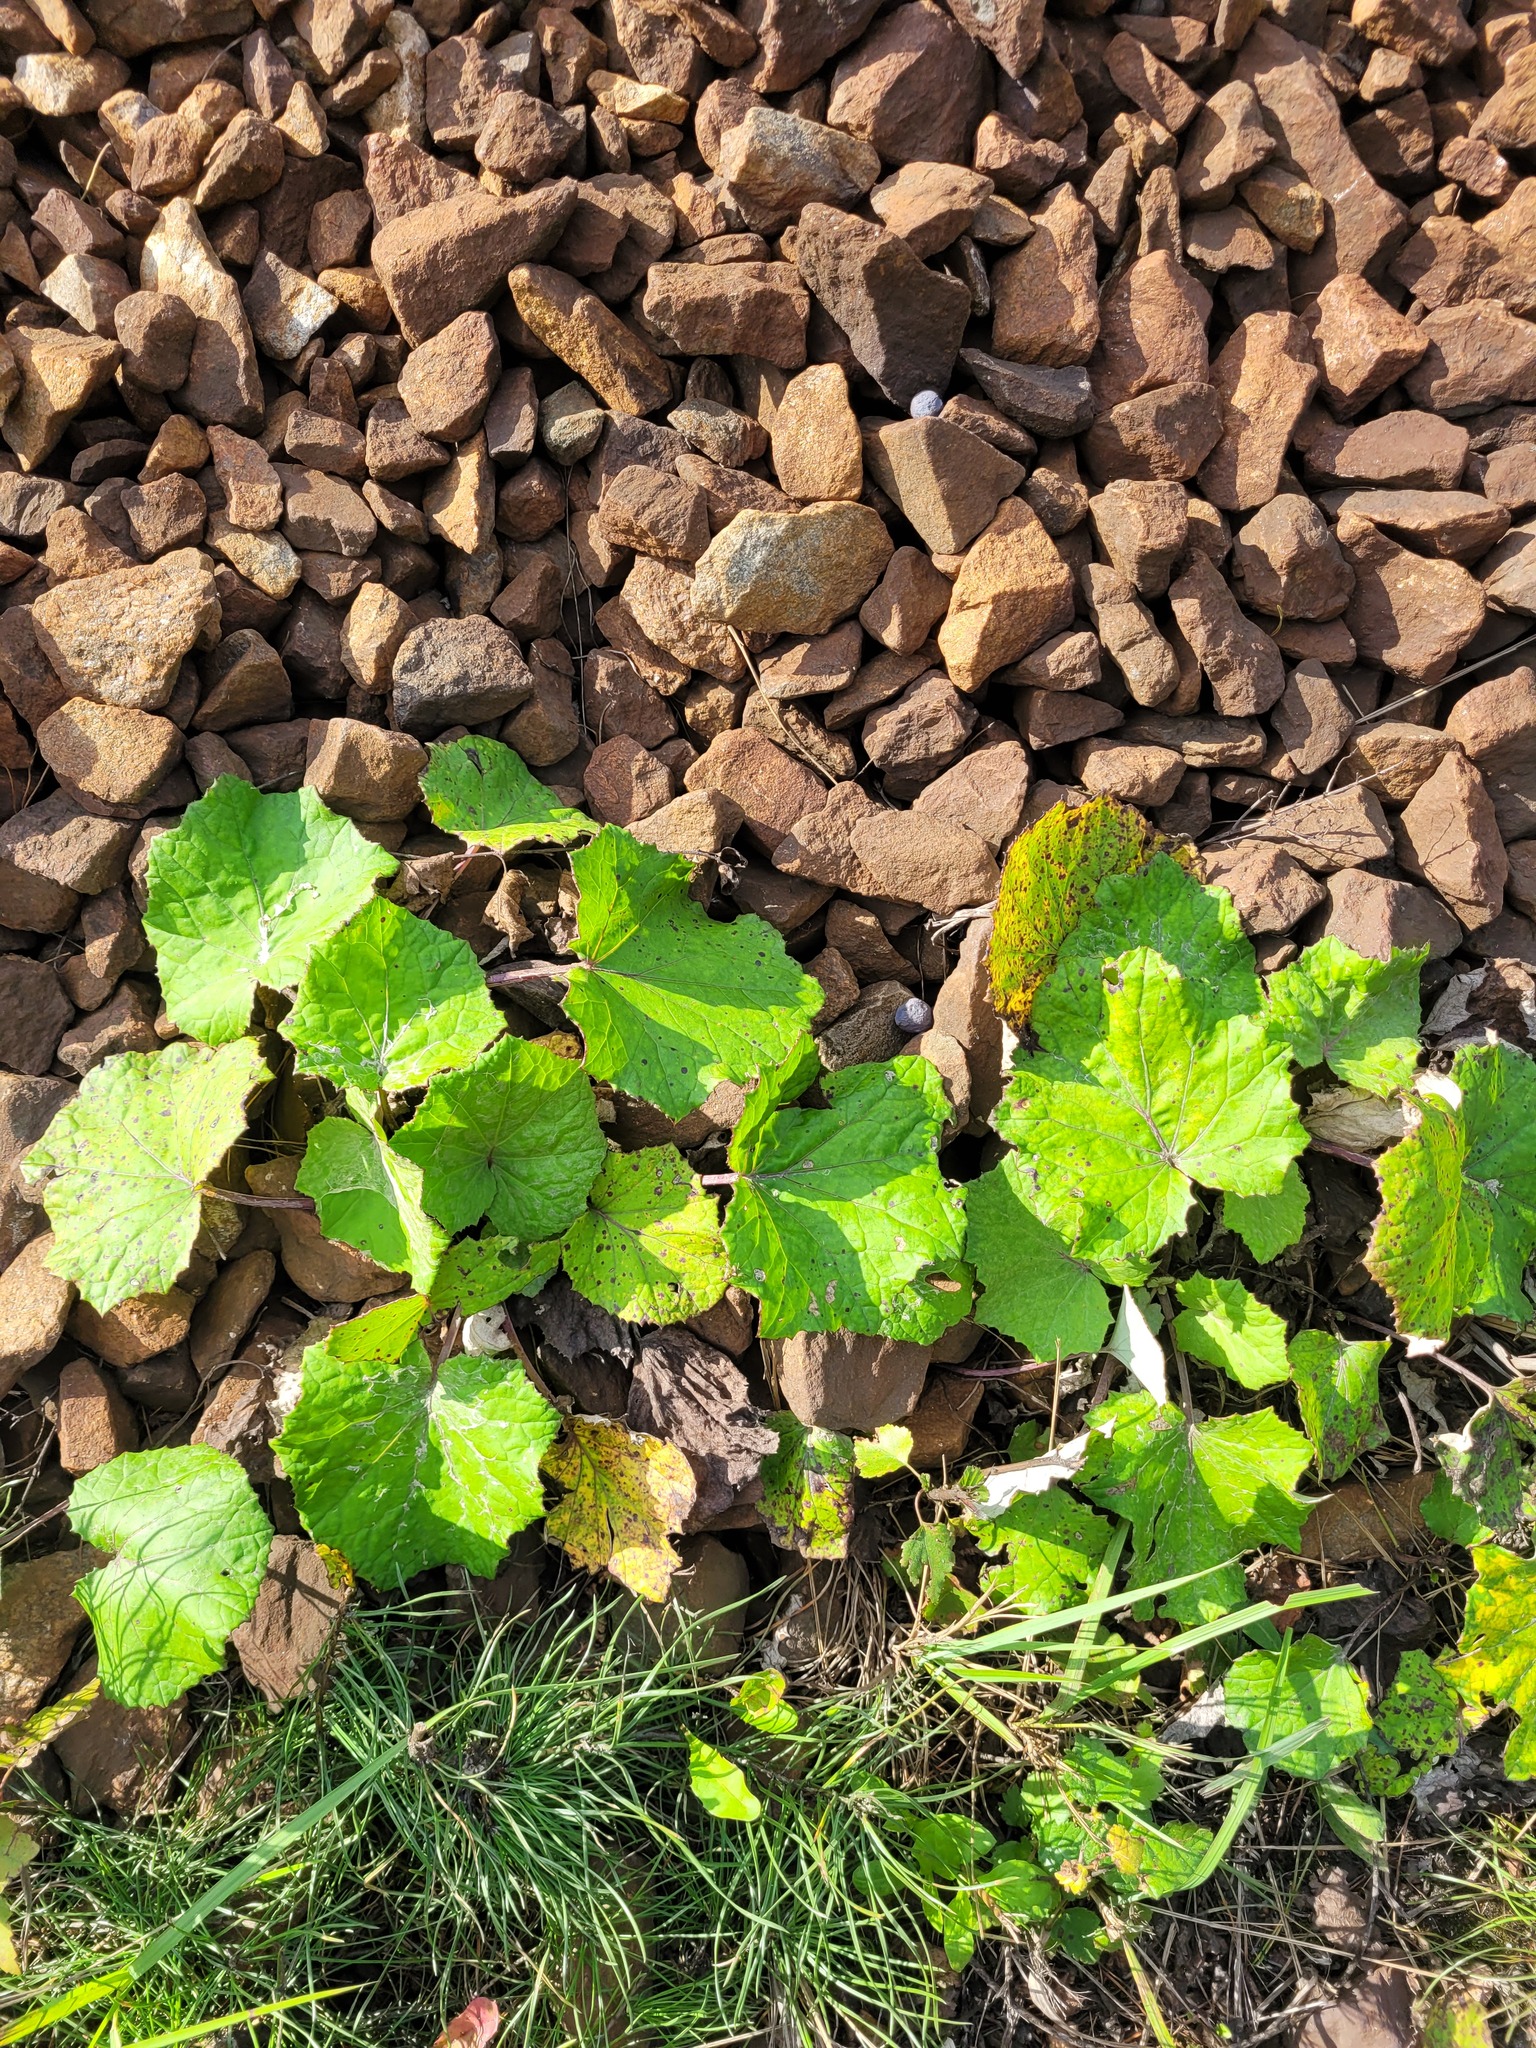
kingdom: Plantae
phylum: Tracheophyta
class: Magnoliopsida
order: Asterales
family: Asteraceae
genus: Tussilago
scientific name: Tussilago farfara
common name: Coltsfoot
